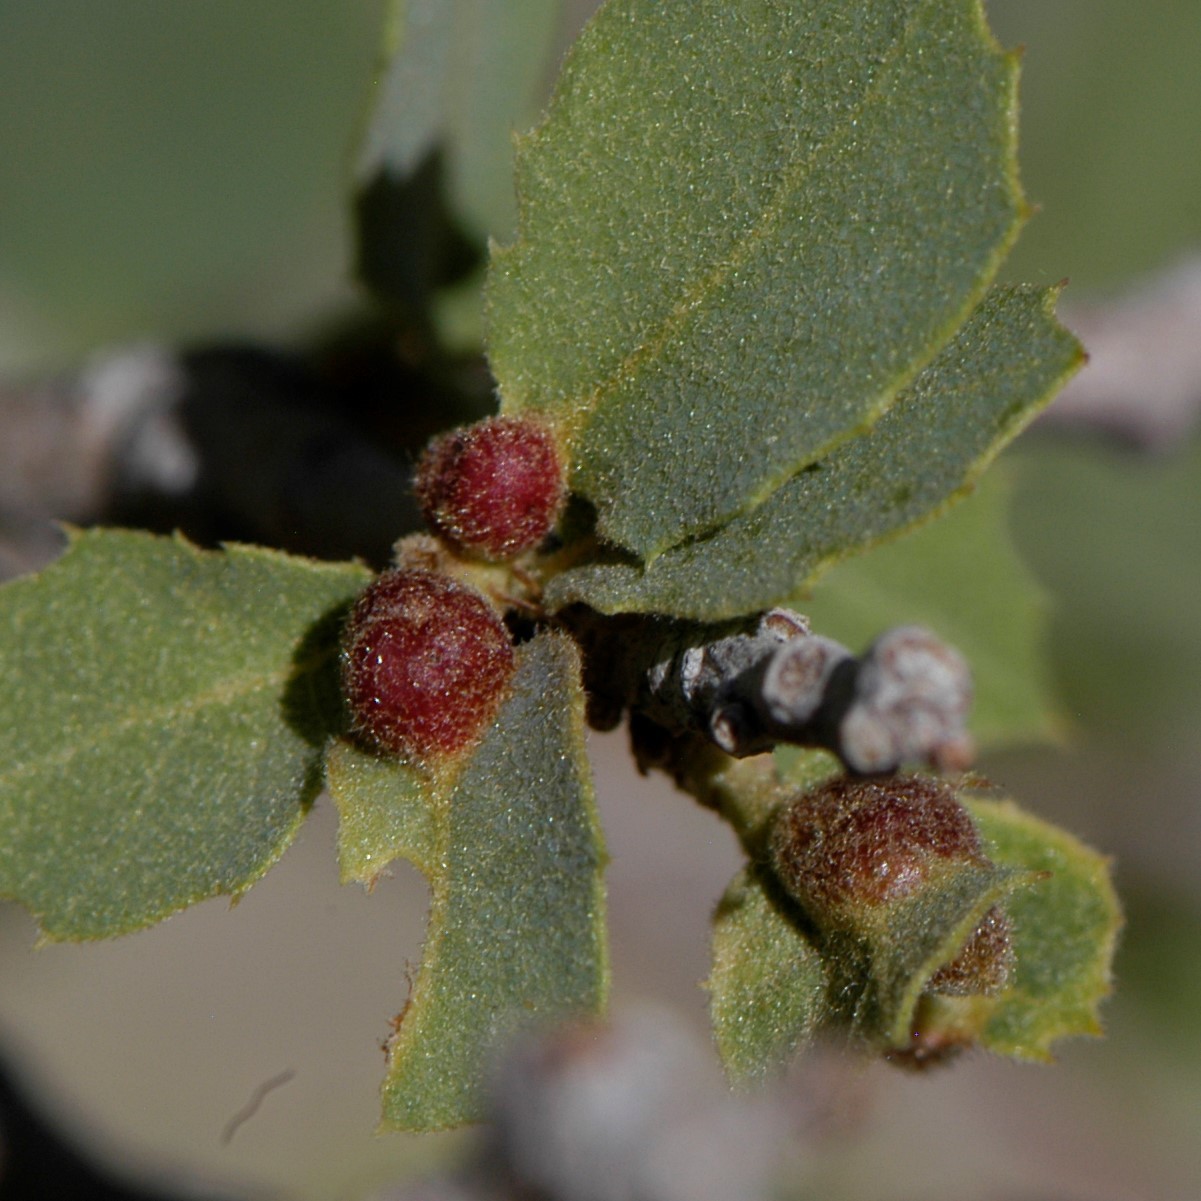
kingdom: Animalia
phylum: Arthropoda
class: Insecta
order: Hymenoptera
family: Cynipidae
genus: Andricus
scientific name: Andricus
